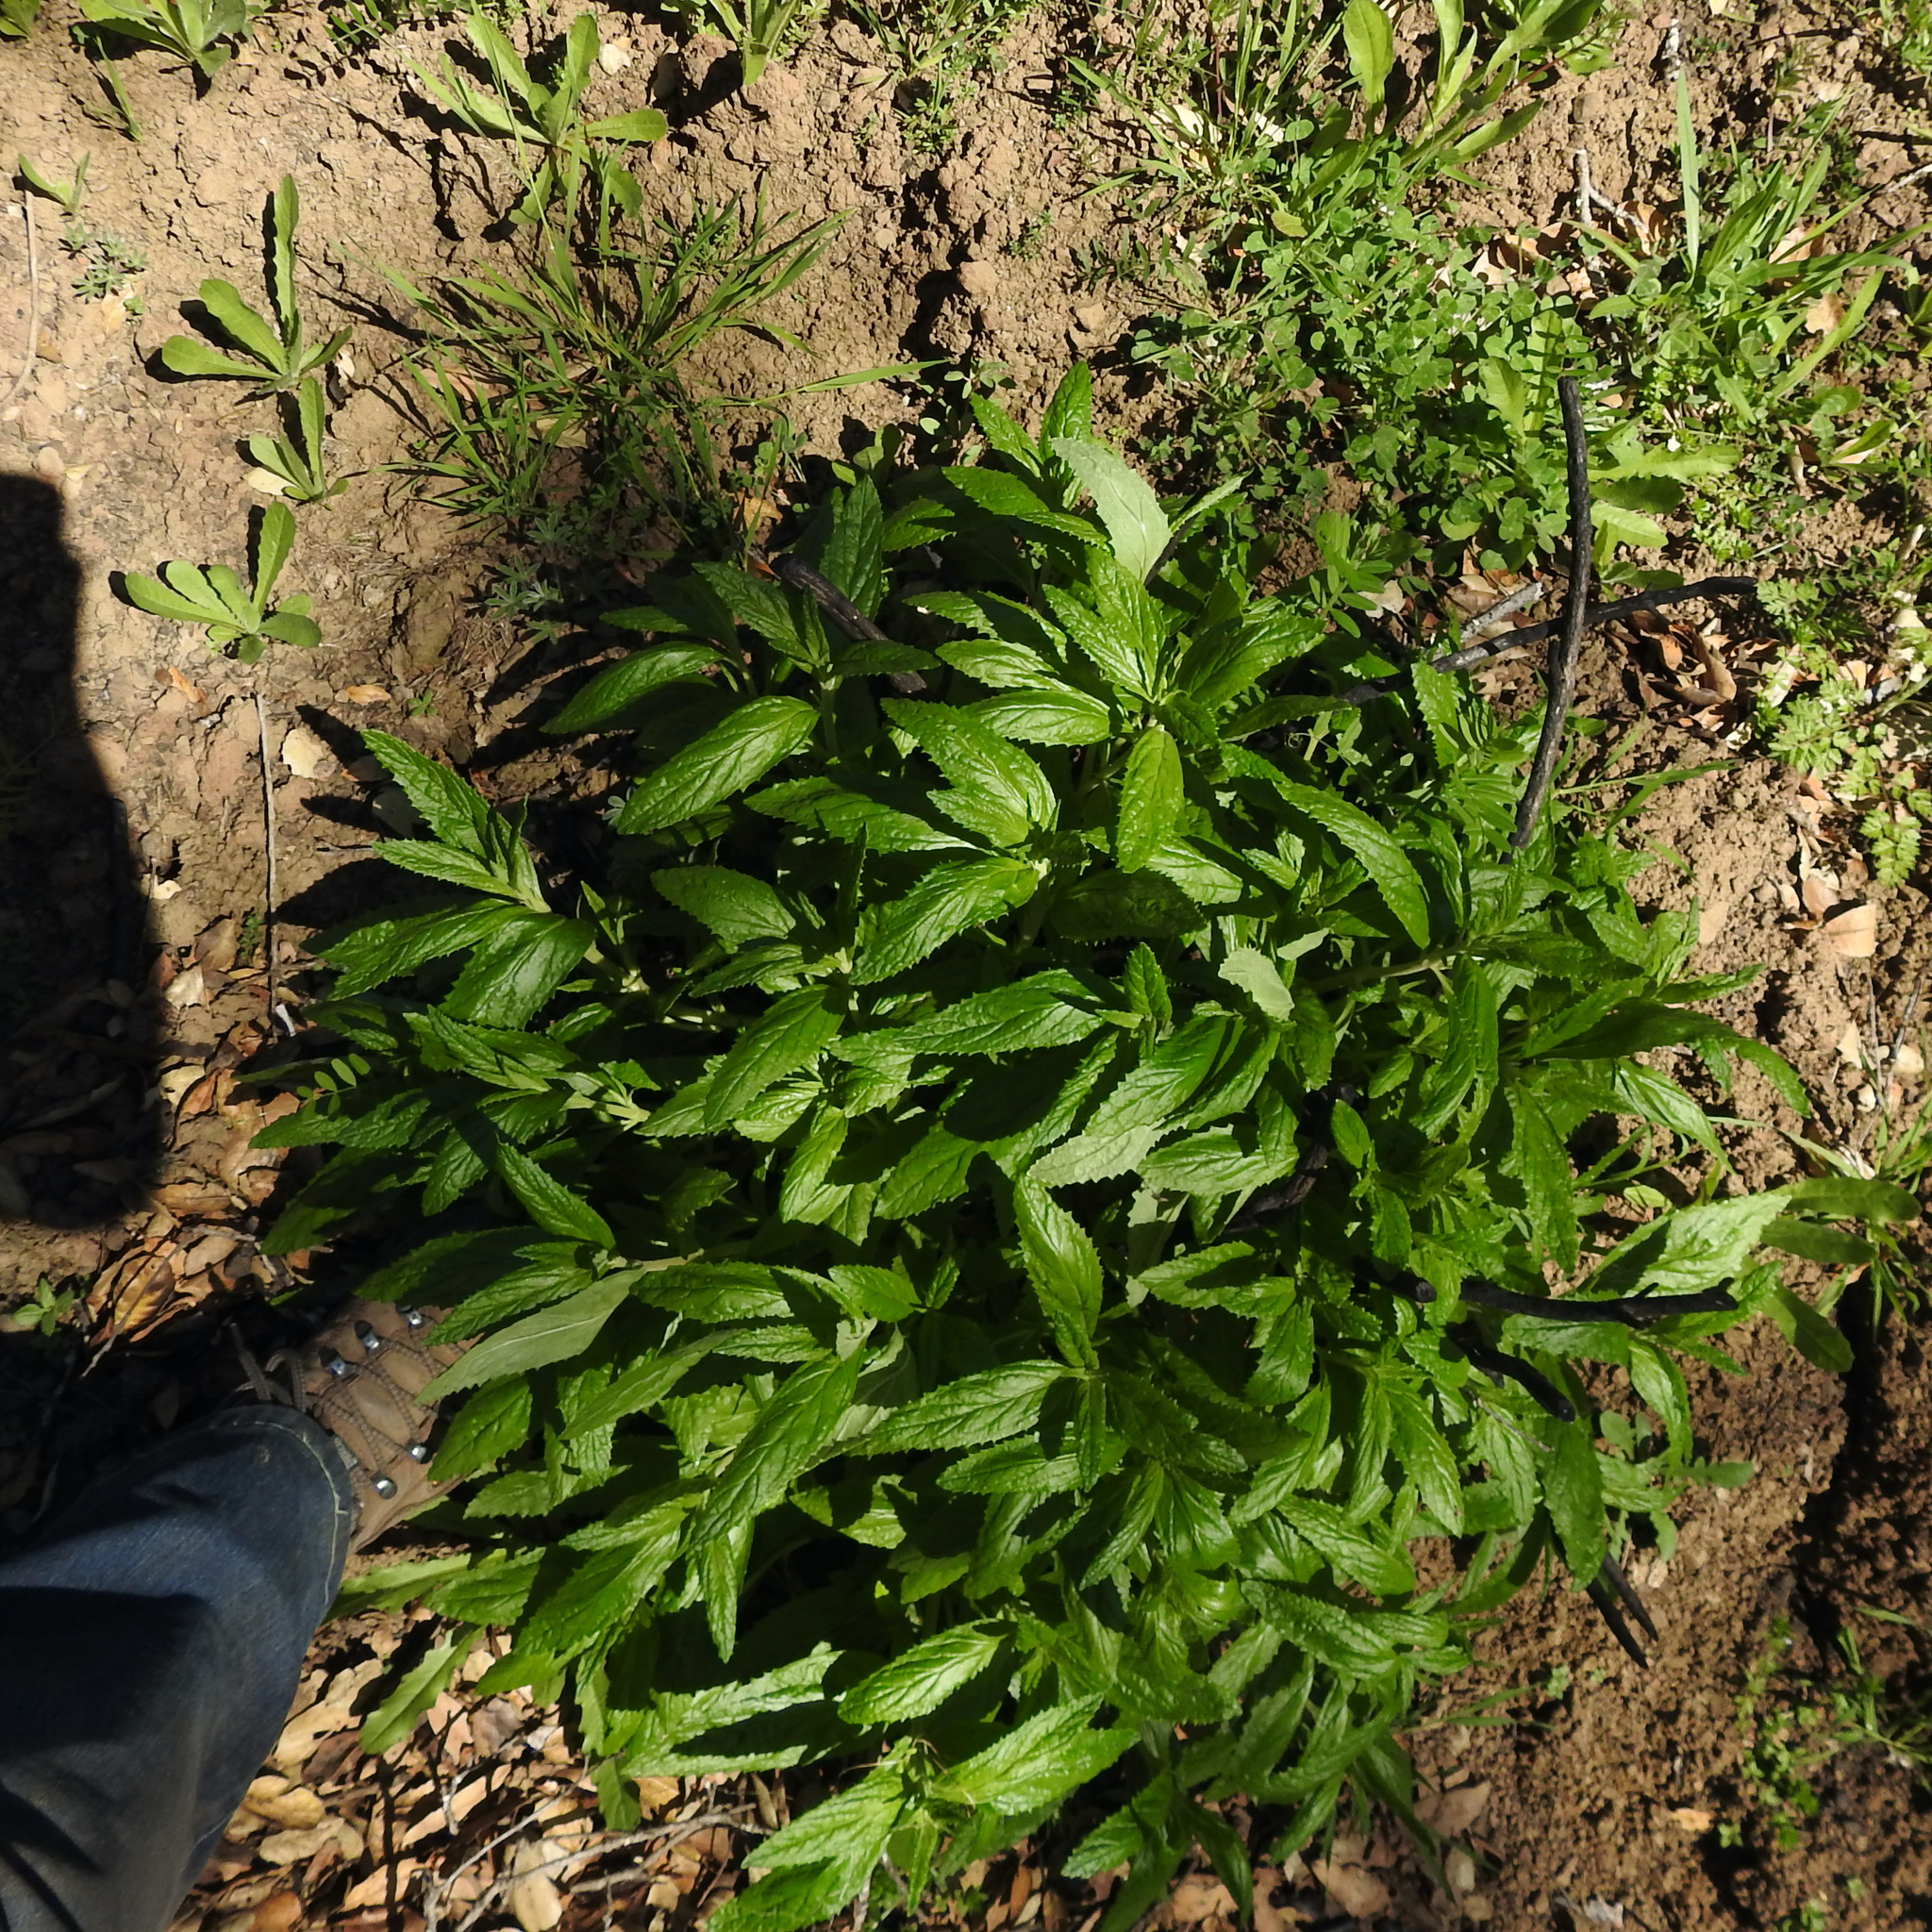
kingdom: Plantae
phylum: Tracheophyta
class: Magnoliopsida
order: Lamiales
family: Phrymaceae
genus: Diplacus
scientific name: Diplacus aurantiacus
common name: Bush monkey-flower
